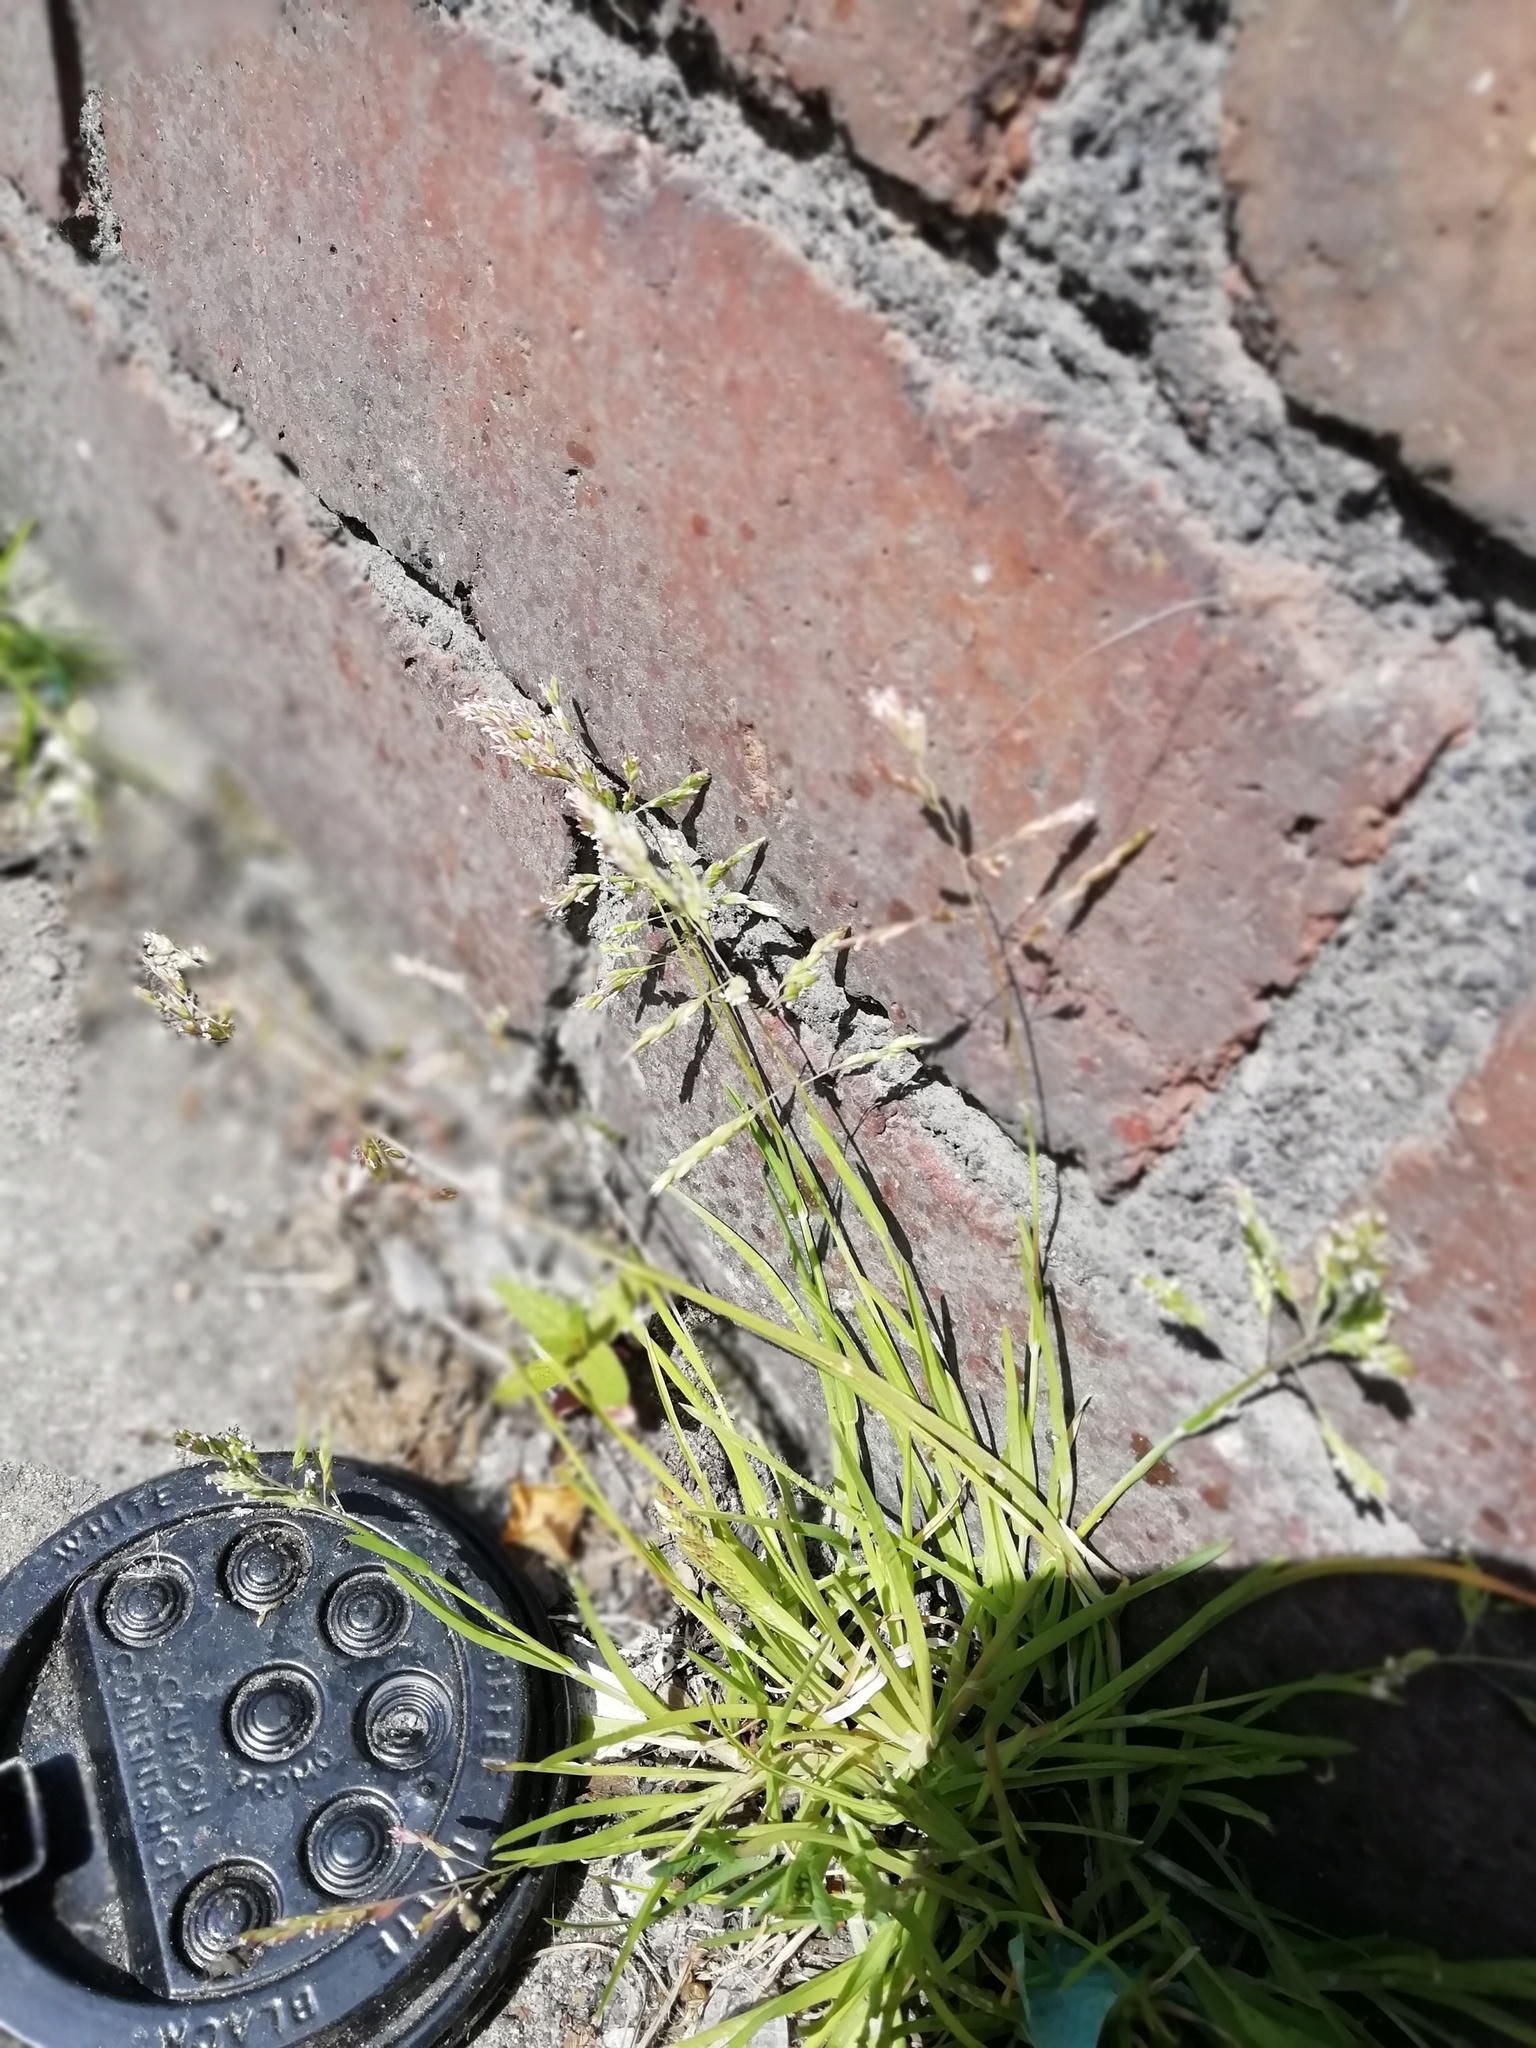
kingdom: Plantae
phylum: Tracheophyta
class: Liliopsida
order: Poales
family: Poaceae
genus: Poa
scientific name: Poa annua
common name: Annual bluegrass
